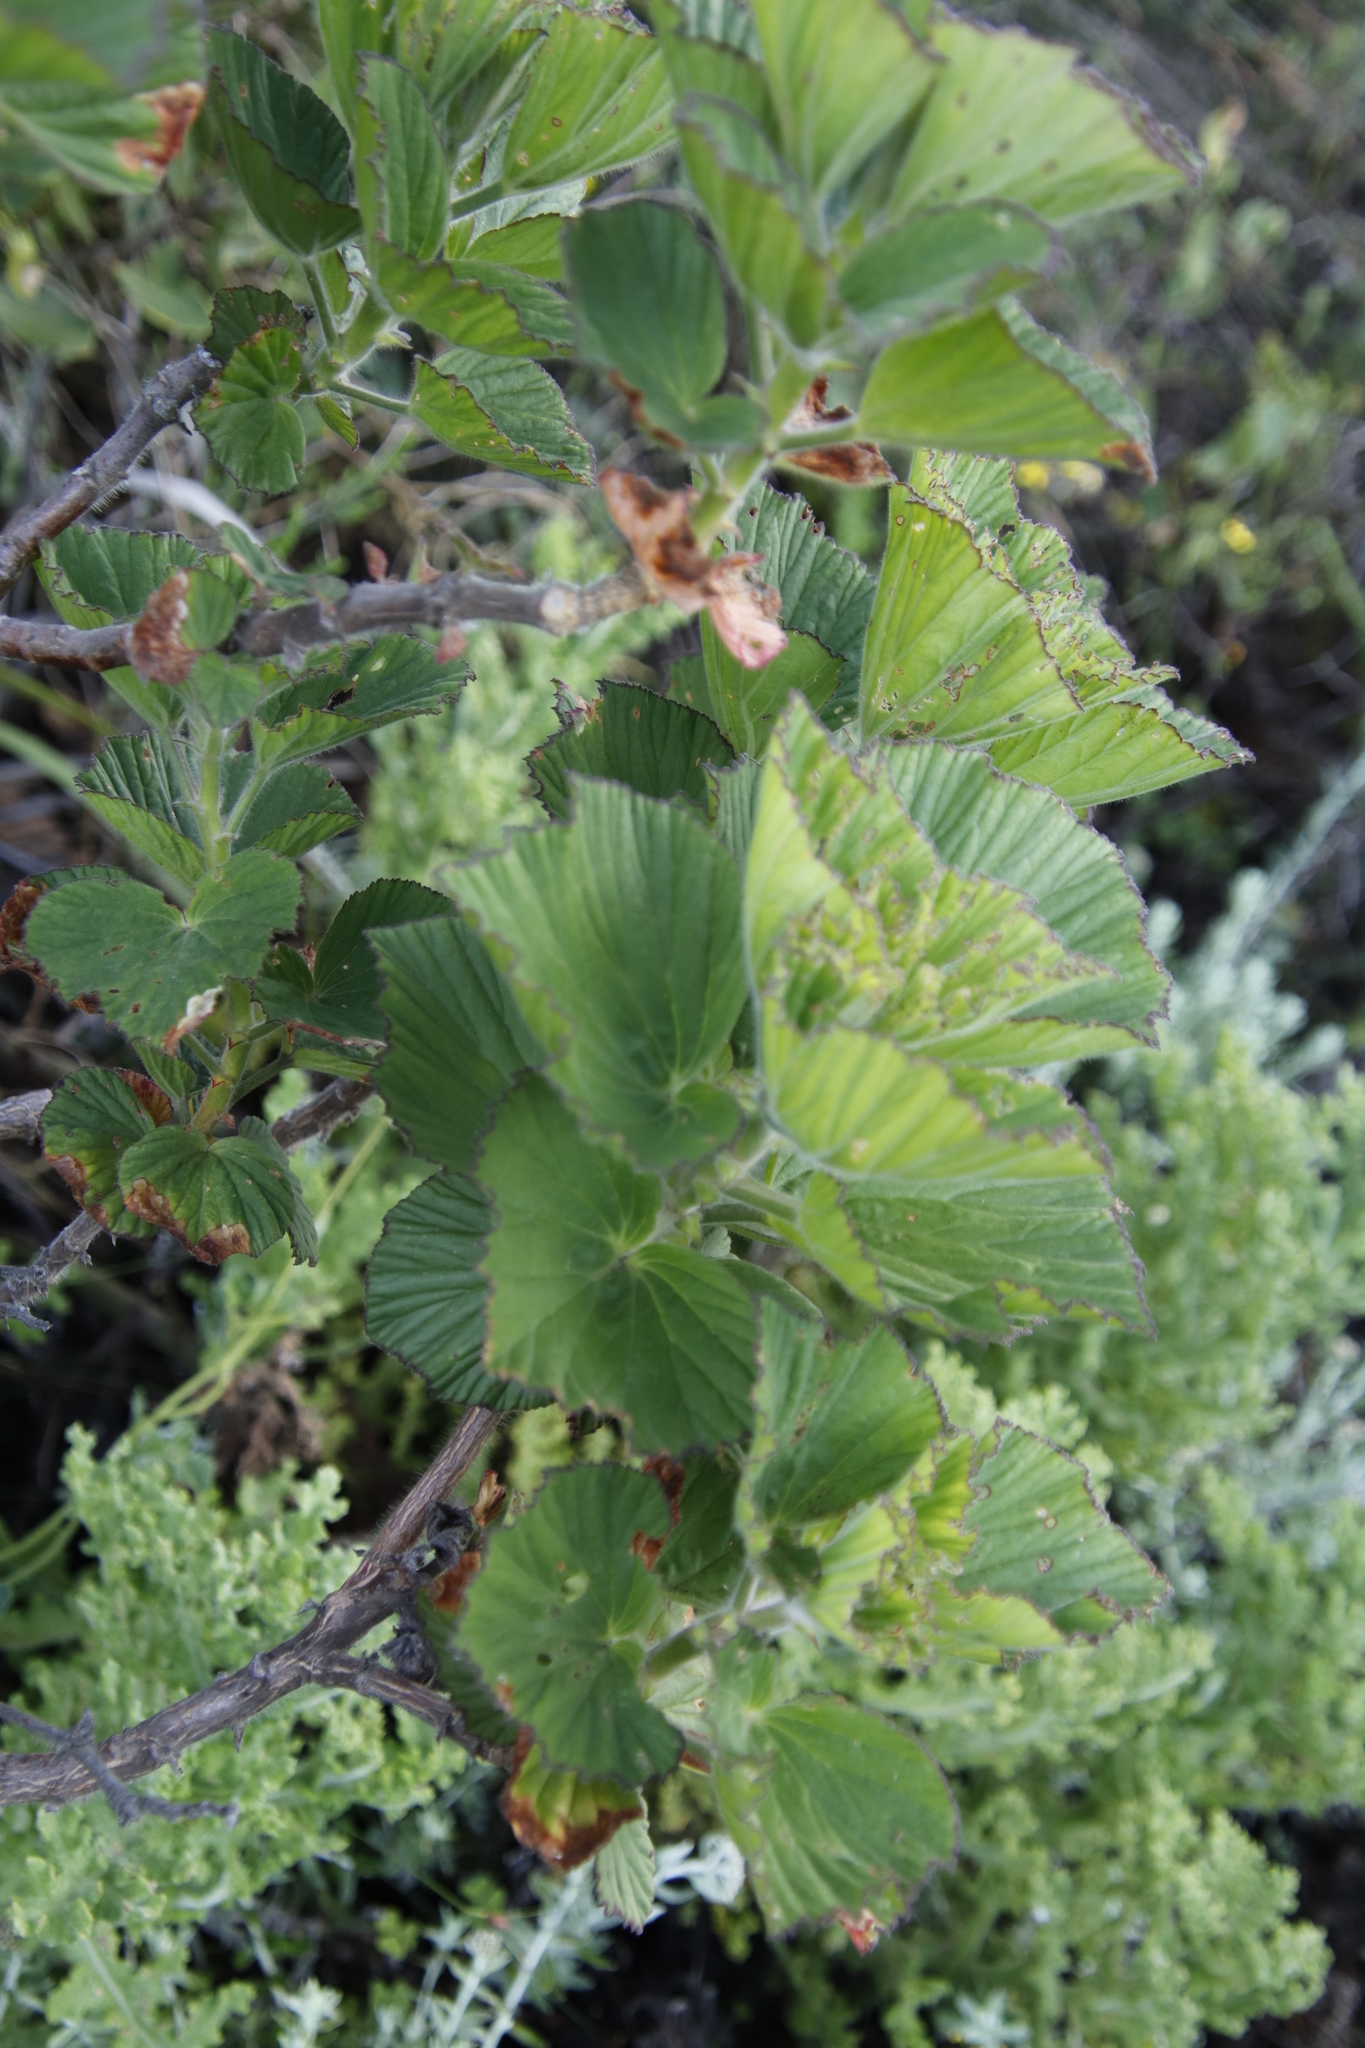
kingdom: Plantae
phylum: Tracheophyta
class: Magnoliopsida
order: Geraniales
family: Geraniaceae
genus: Pelargonium
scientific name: Pelargonium cucullatum
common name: Tree pelargonium
